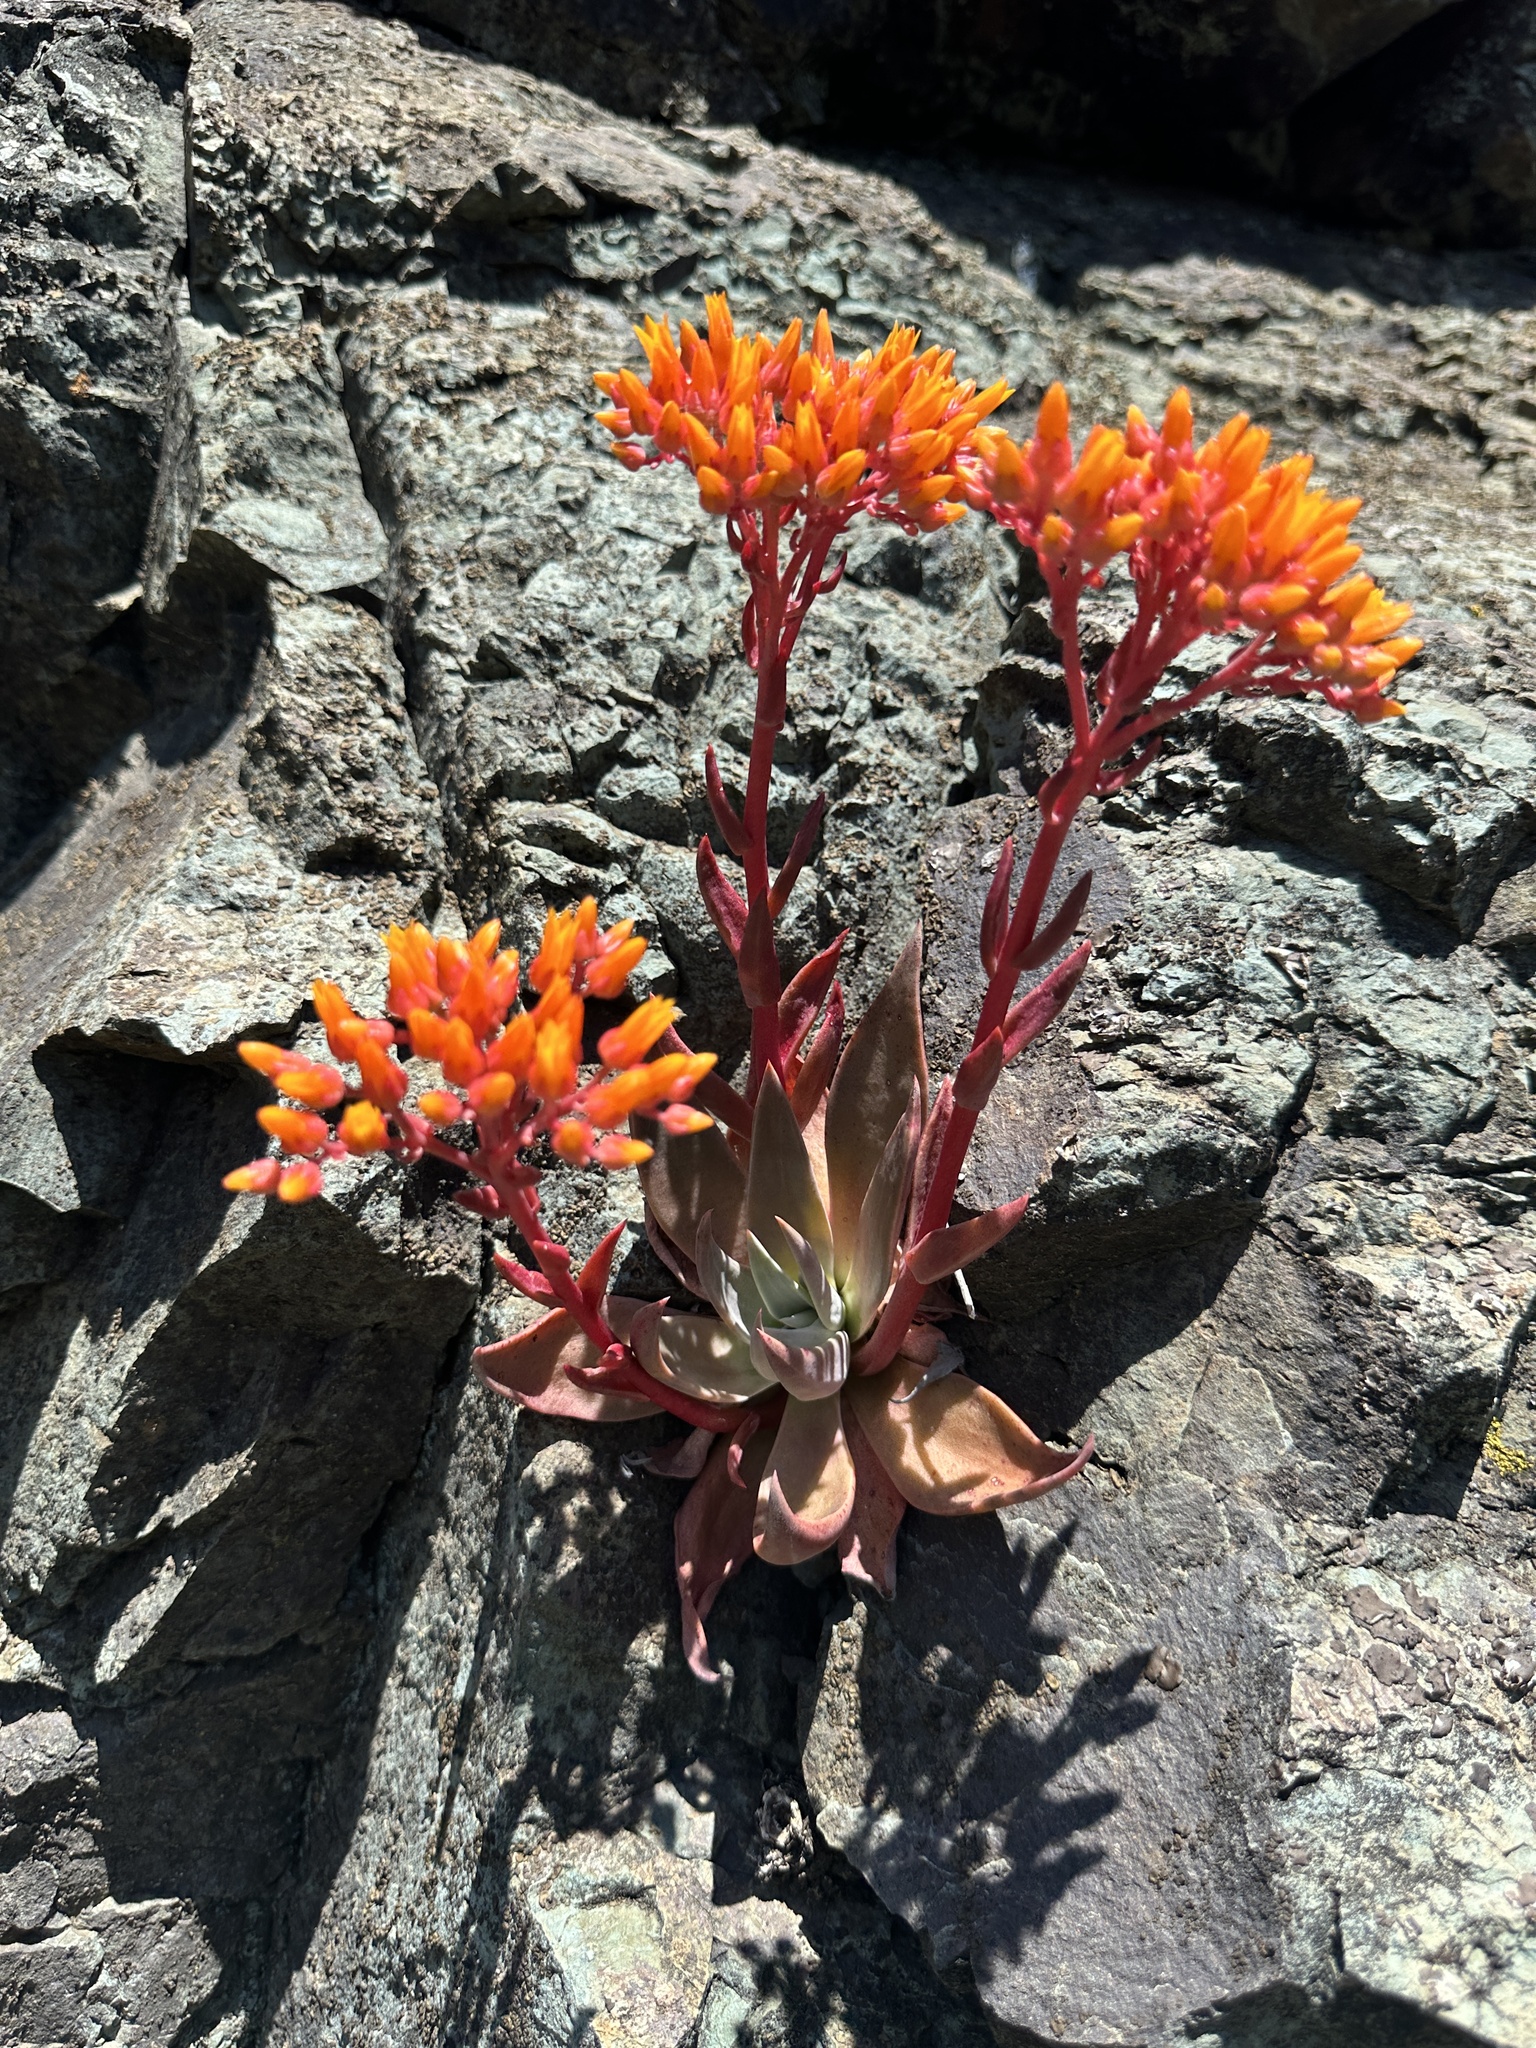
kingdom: Plantae
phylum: Tracheophyta
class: Magnoliopsida
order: Saxifragales
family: Crassulaceae
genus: Dudleya
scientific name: Dudleya cymosa
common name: Canyon dudleya
